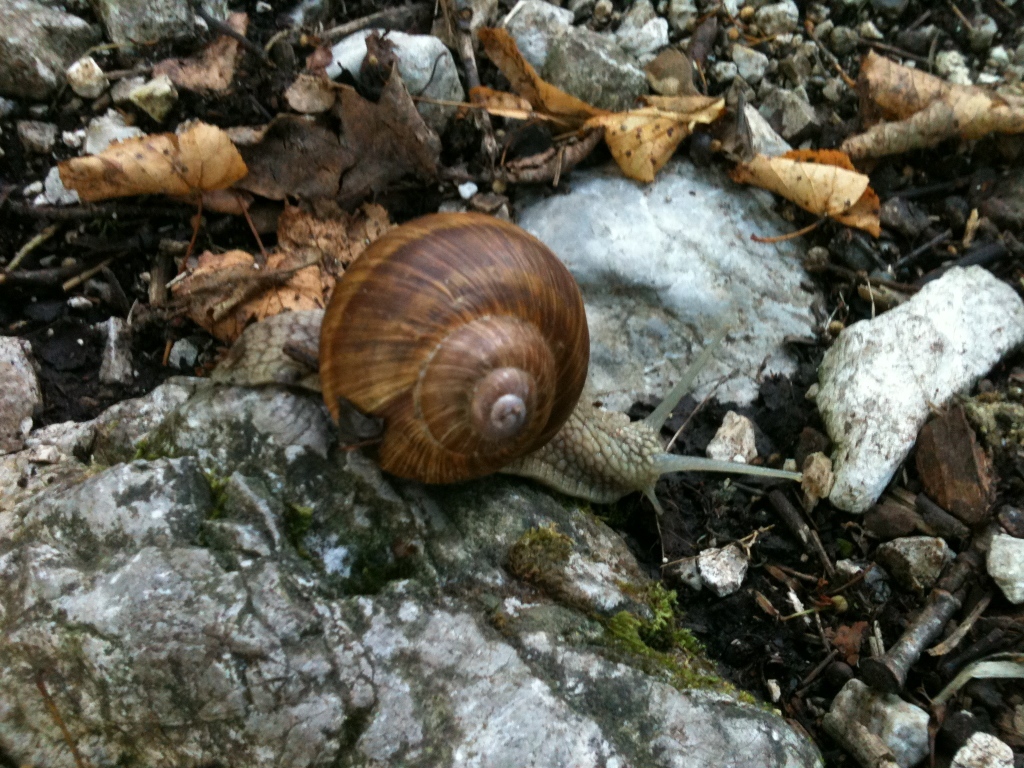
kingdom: Animalia
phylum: Mollusca
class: Gastropoda
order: Stylommatophora
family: Helicidae
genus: Helix
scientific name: Helix pomatia
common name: Roman snail
